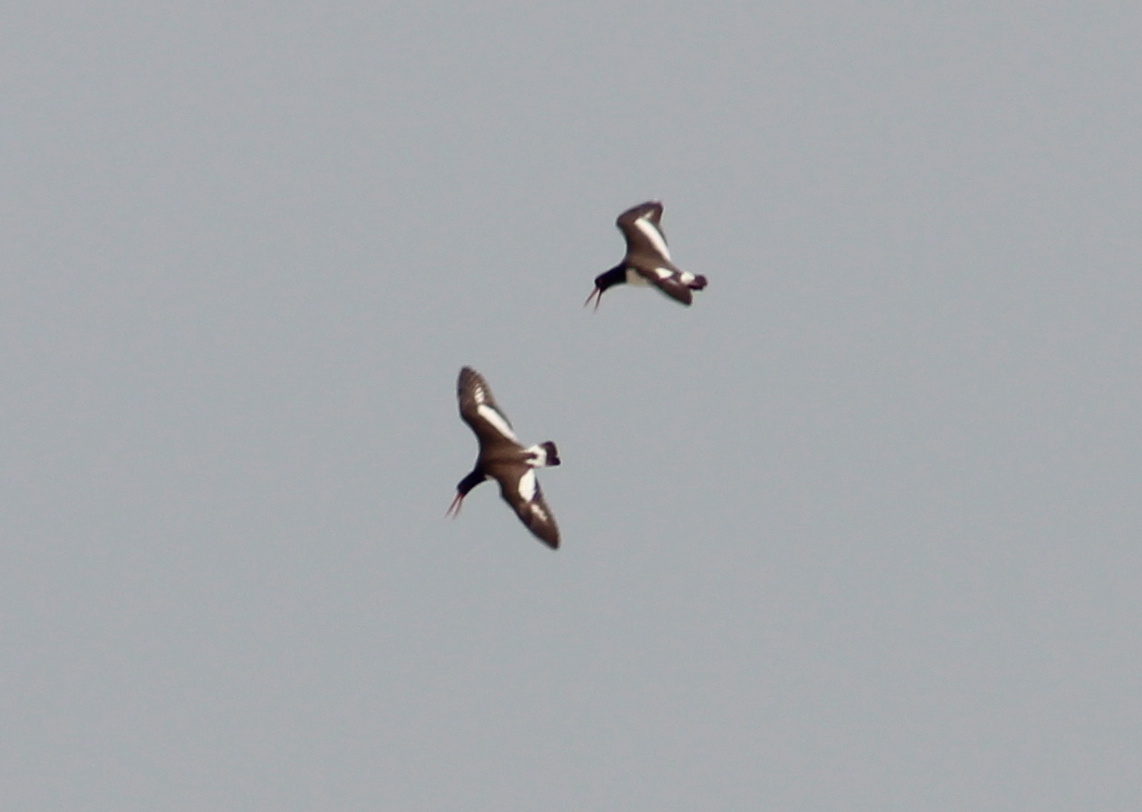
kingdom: Animalia
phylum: Chordata
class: Aves
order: Charadriiformes
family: Haematopodidae
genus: Haematopus
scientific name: Haematopus palliatus
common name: American oystercatcher
